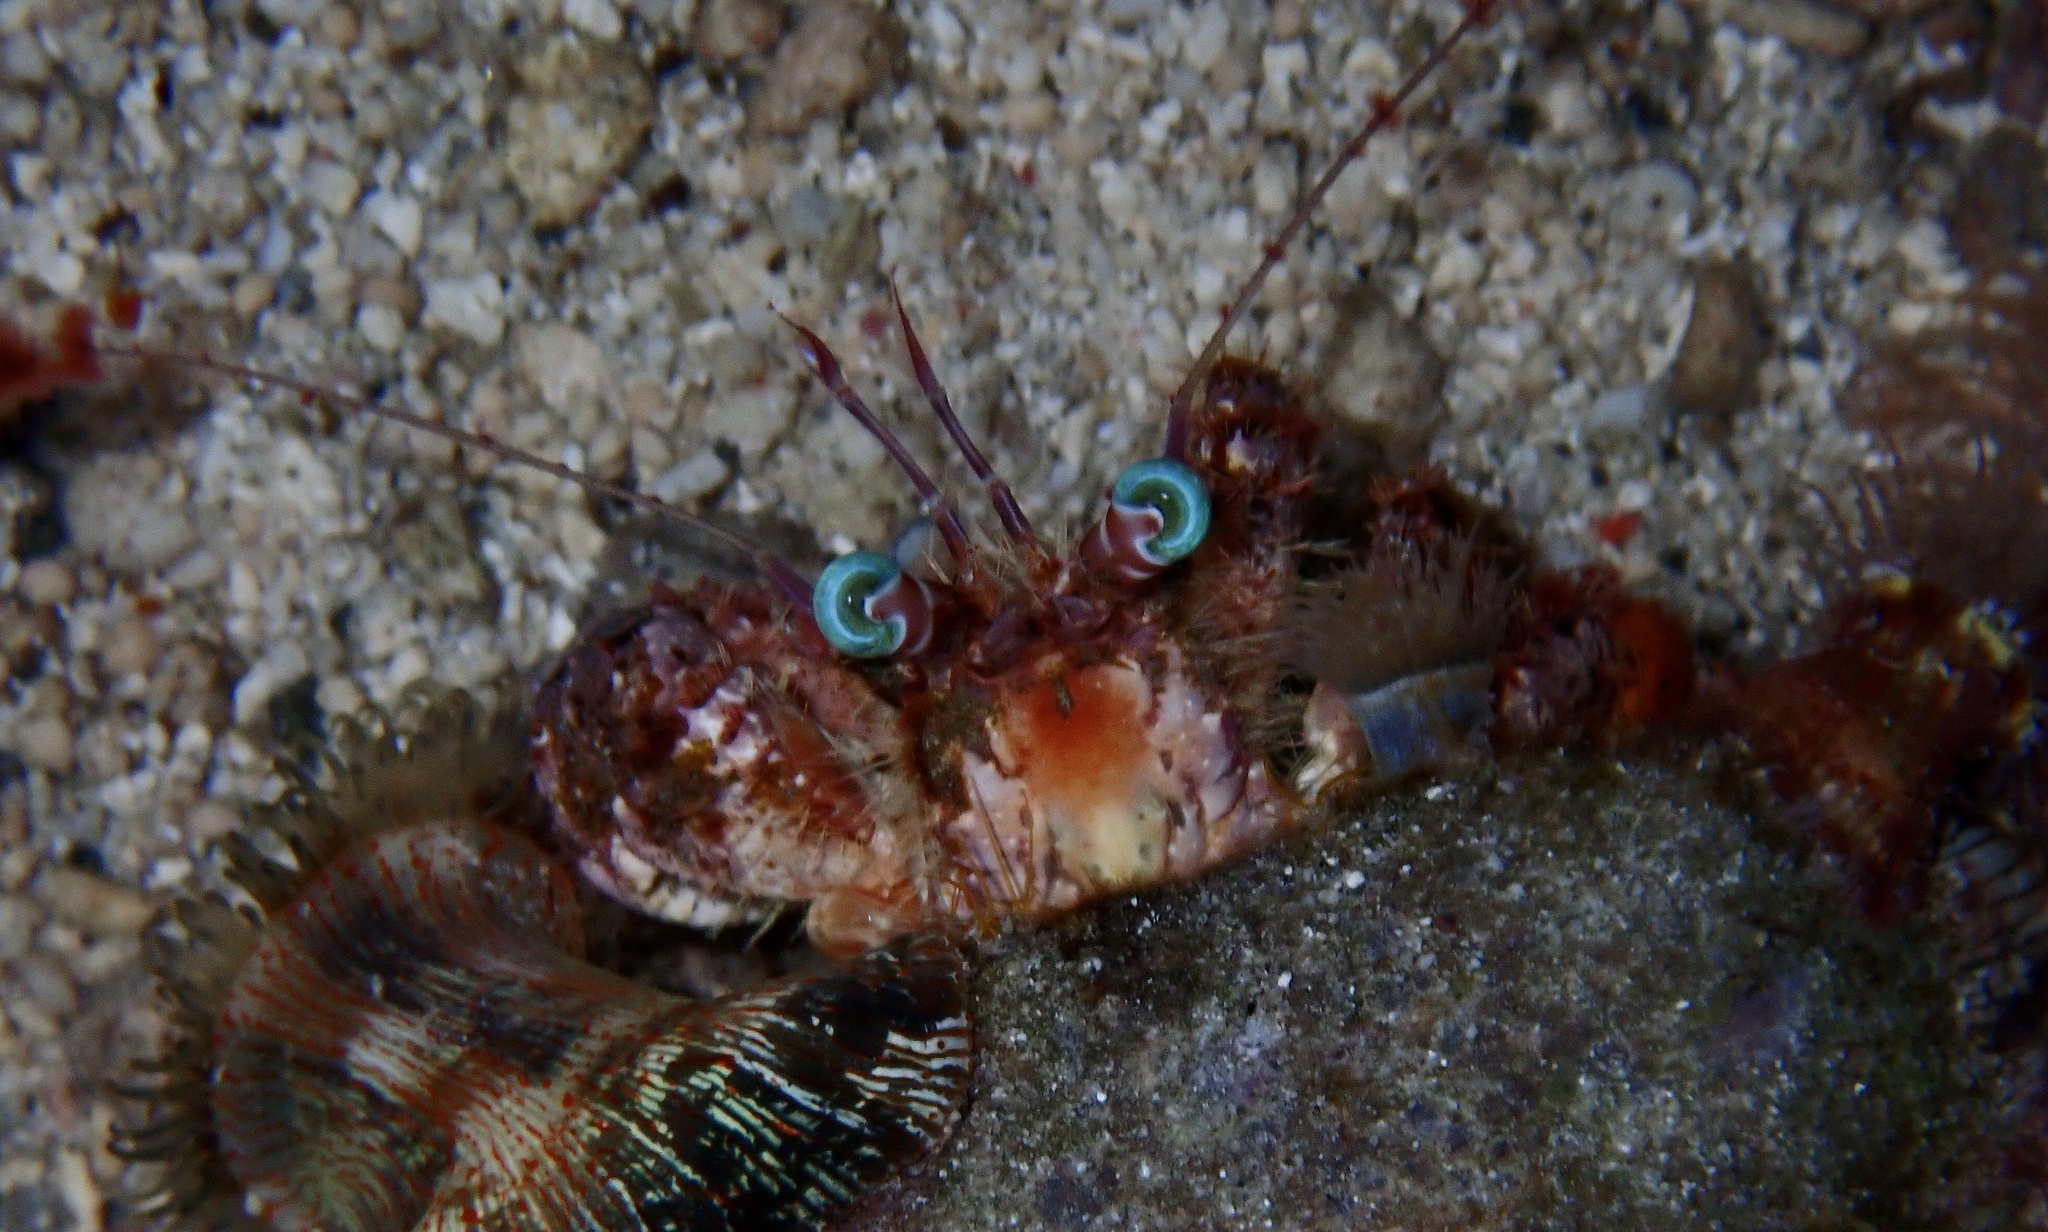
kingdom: Animalia
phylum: Arthropoda
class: Malacostraca
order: Decapoda
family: Diogenidae
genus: Dardanus
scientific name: Dardanus pedunculatus
